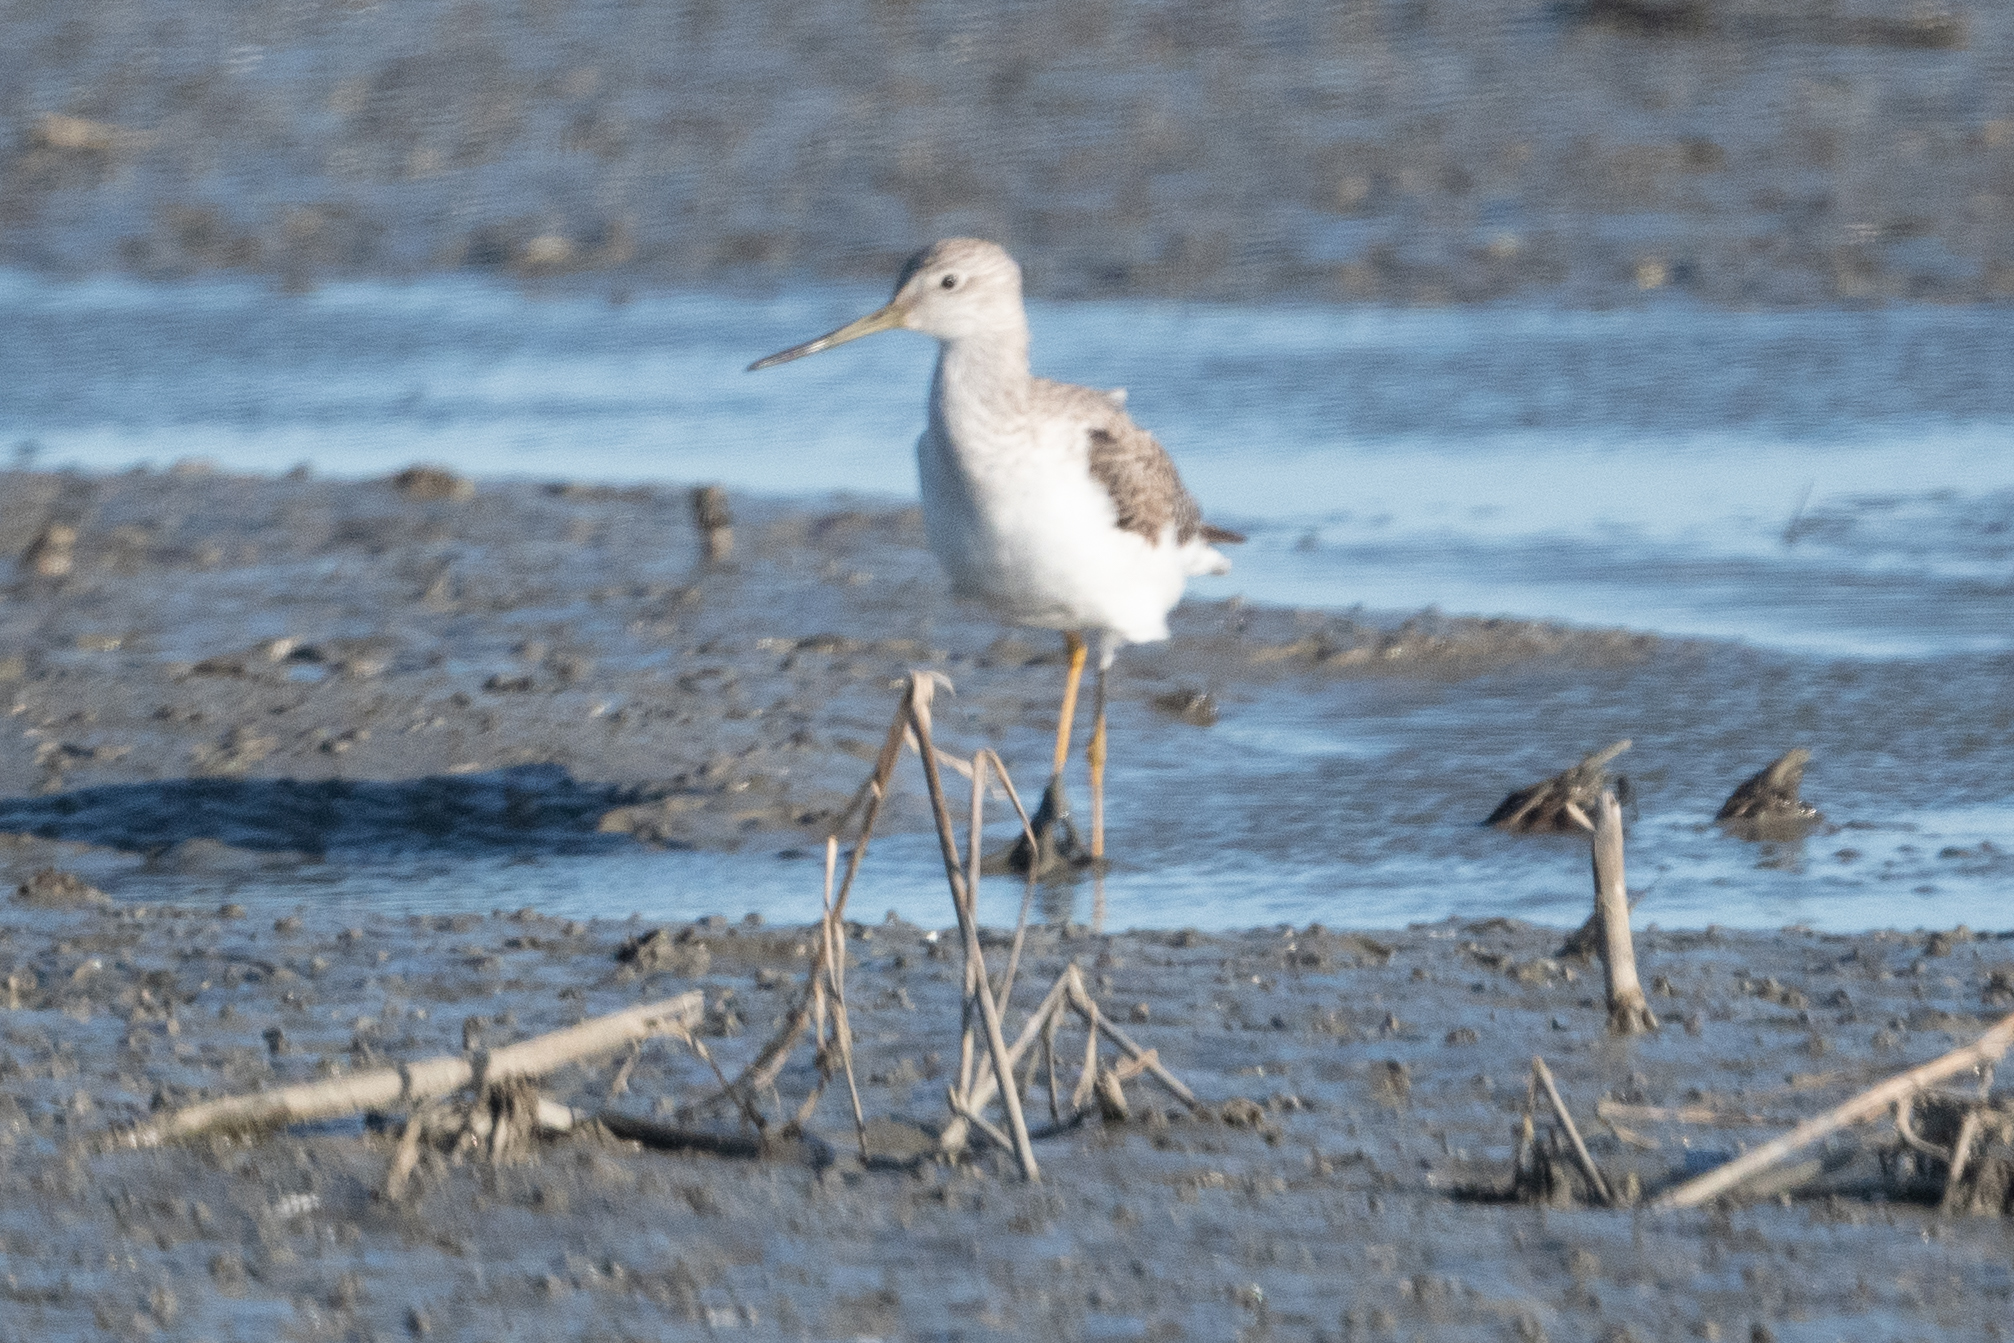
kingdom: Animalia
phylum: Chordata
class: Aves
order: Charadriiformes
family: Scolopacidae
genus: Tringa
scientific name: Tringa melanoleuca
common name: Greater yellowlegs
